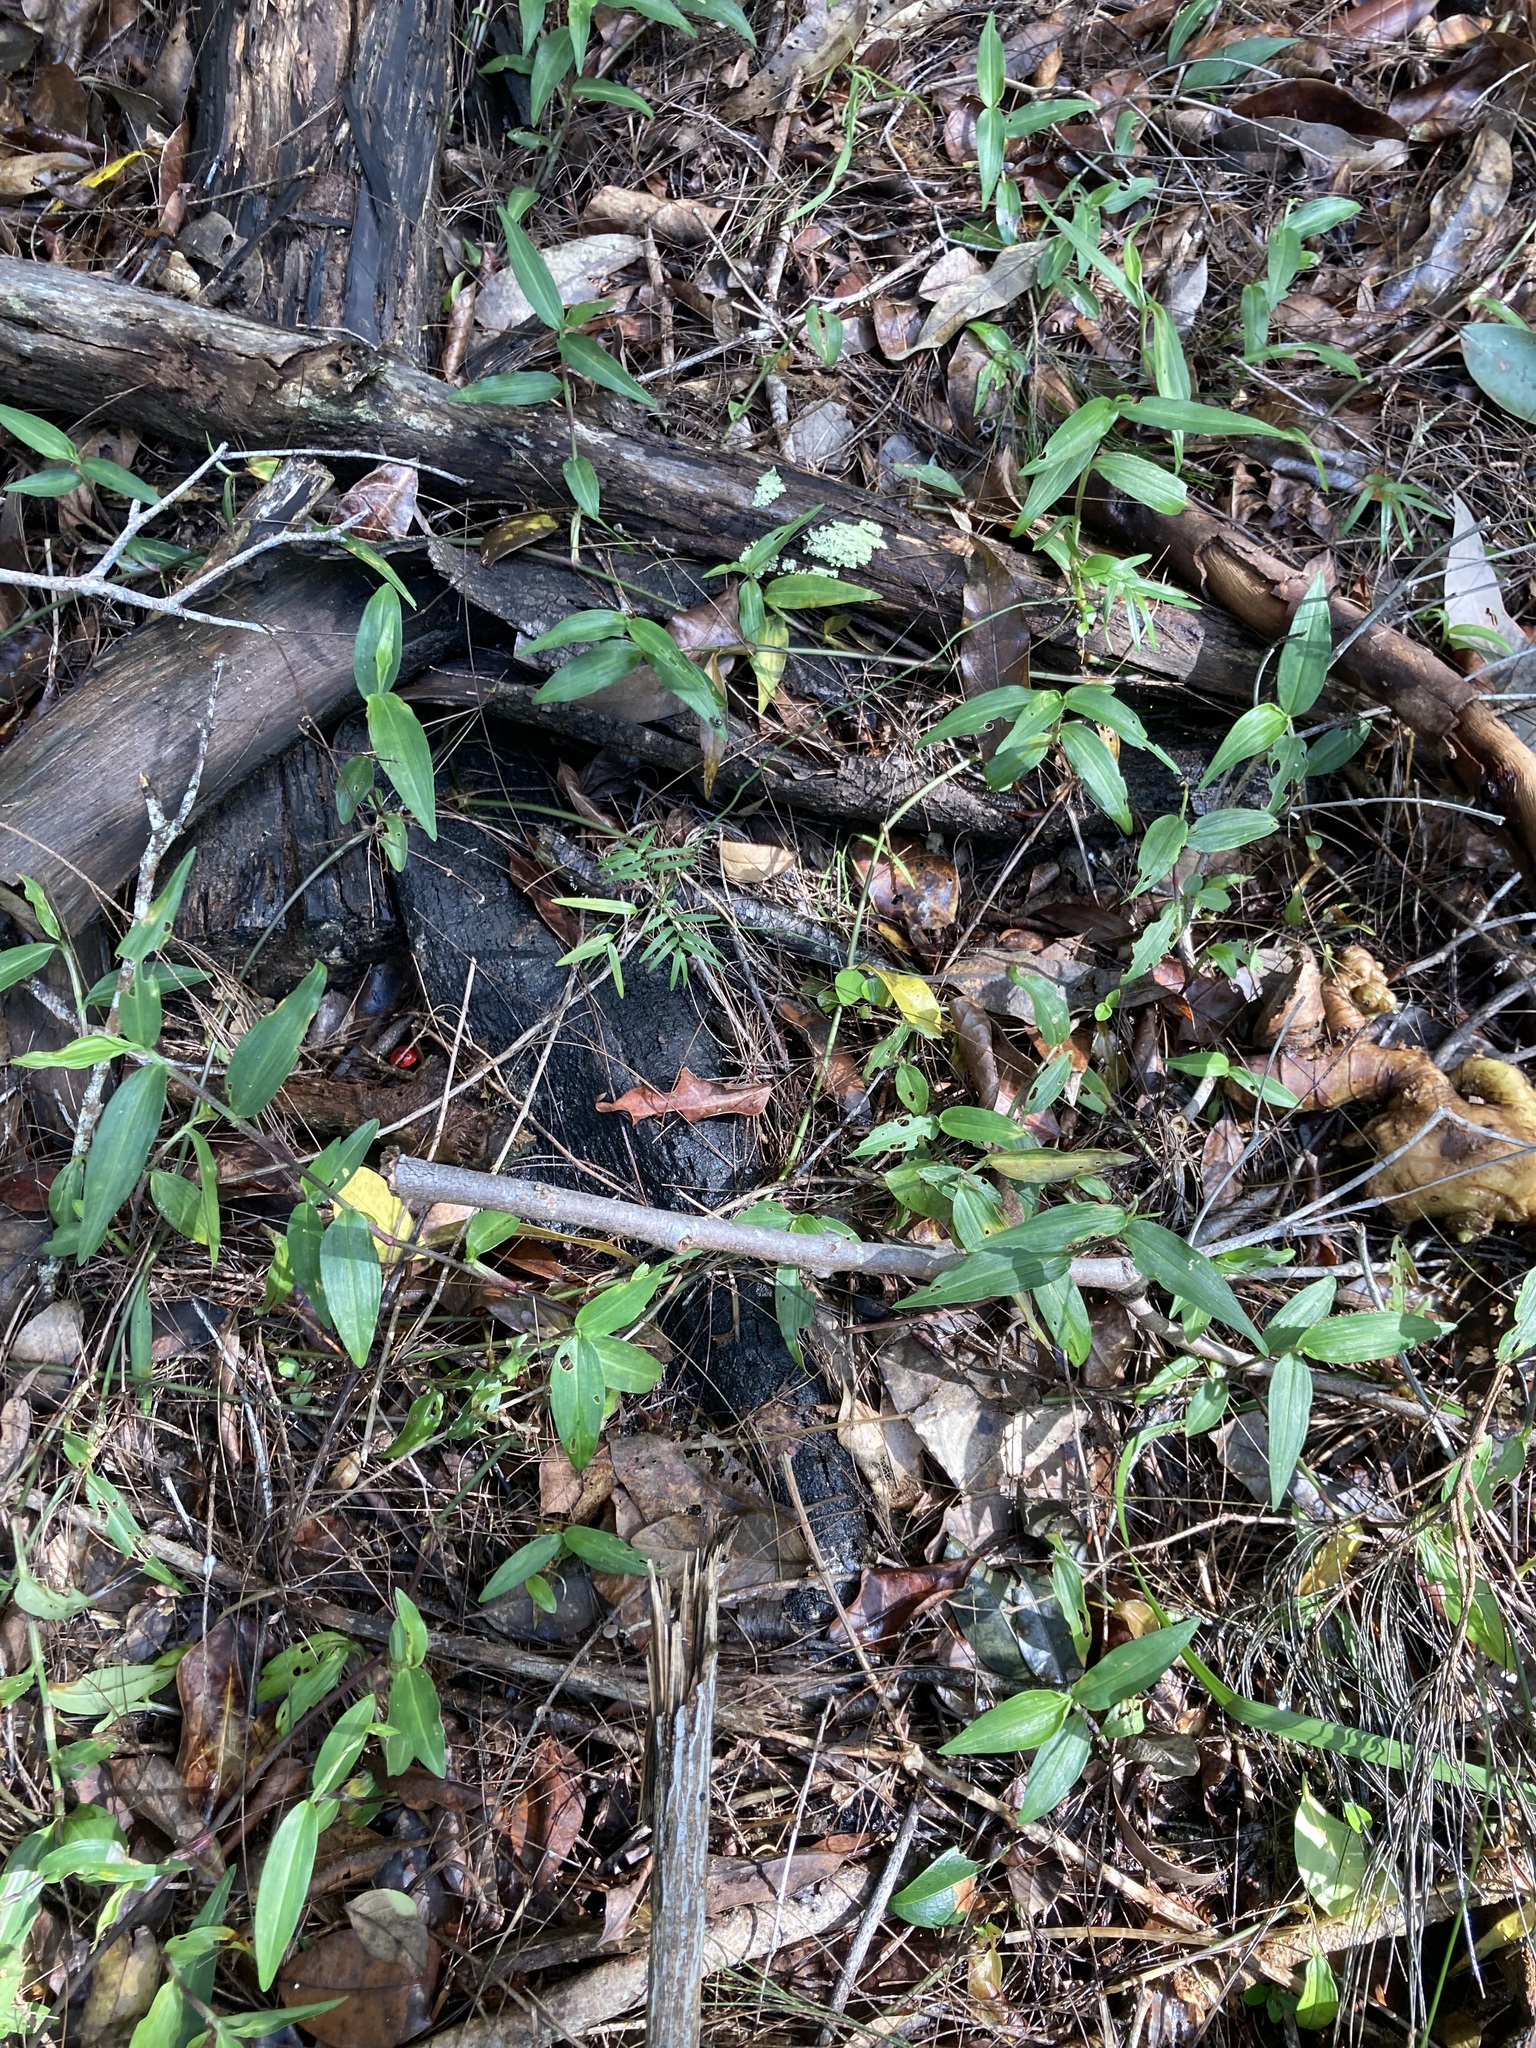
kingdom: Plantae
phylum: Tracheophyta
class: Liliopsida
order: Commelinales
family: Commelinaceae
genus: Commelina
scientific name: Commelina cyanea
